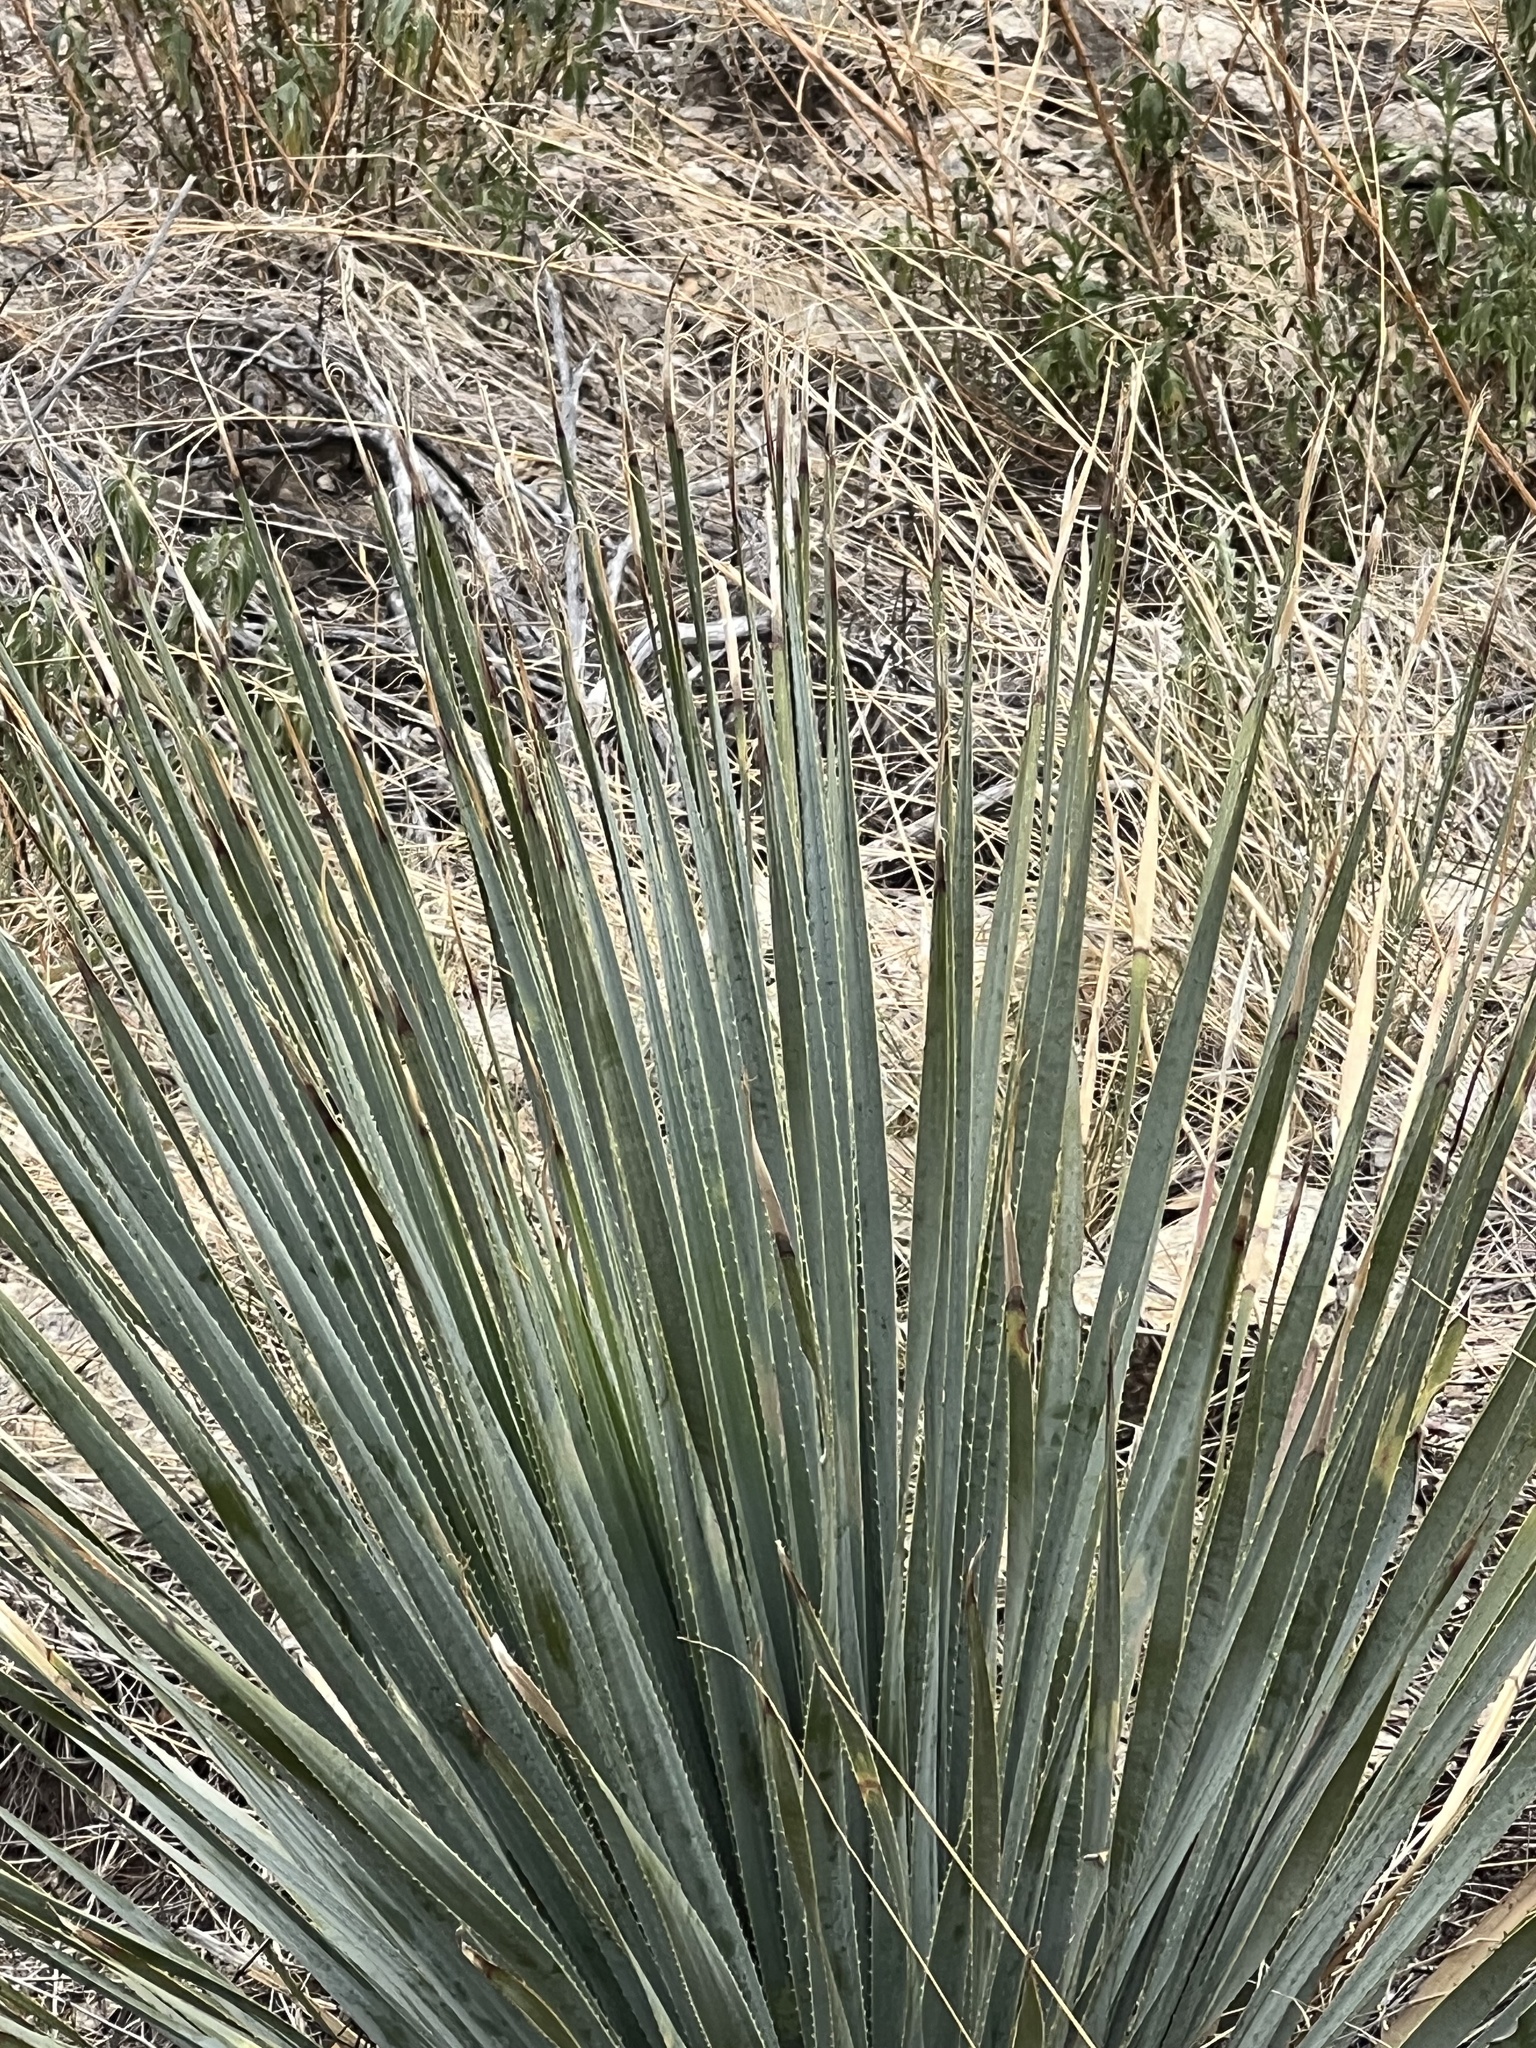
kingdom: Plantae
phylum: Tracheophyta
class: Liliopsida
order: Asparagales
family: Asparagaceae
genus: Dasylirion
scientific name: Dasylirion wheeleri
